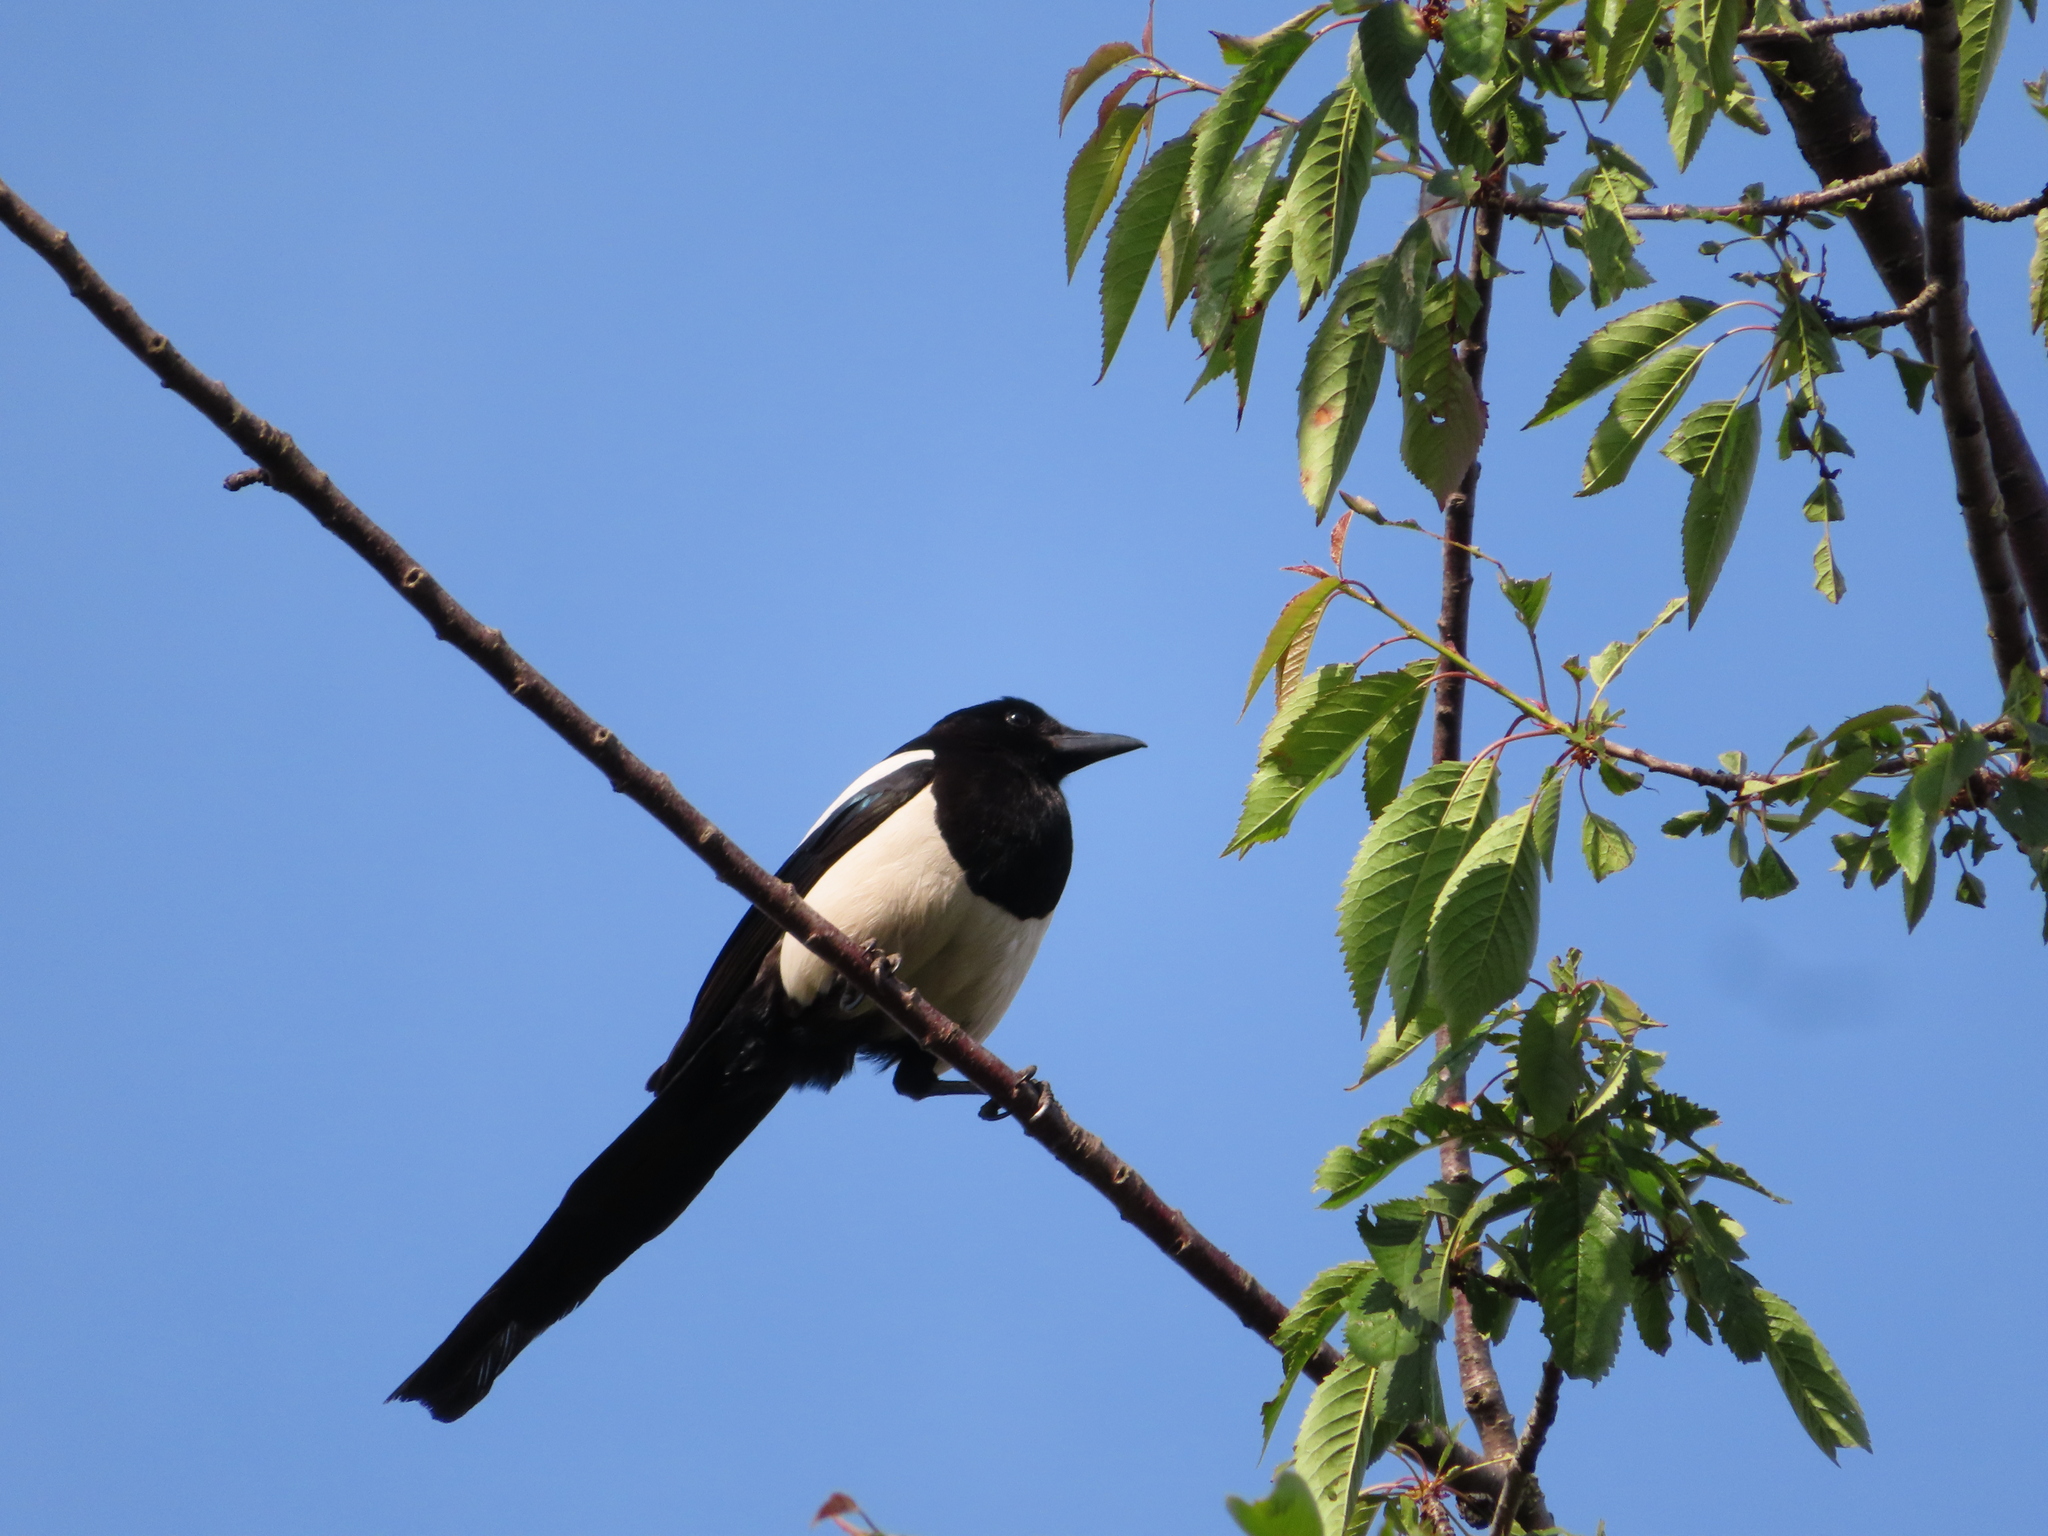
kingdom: Animalia
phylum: Chordata
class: Aves
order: Passeriformes
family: Corvidae
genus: Pica
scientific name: Pica pica
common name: Eurasian magpie
